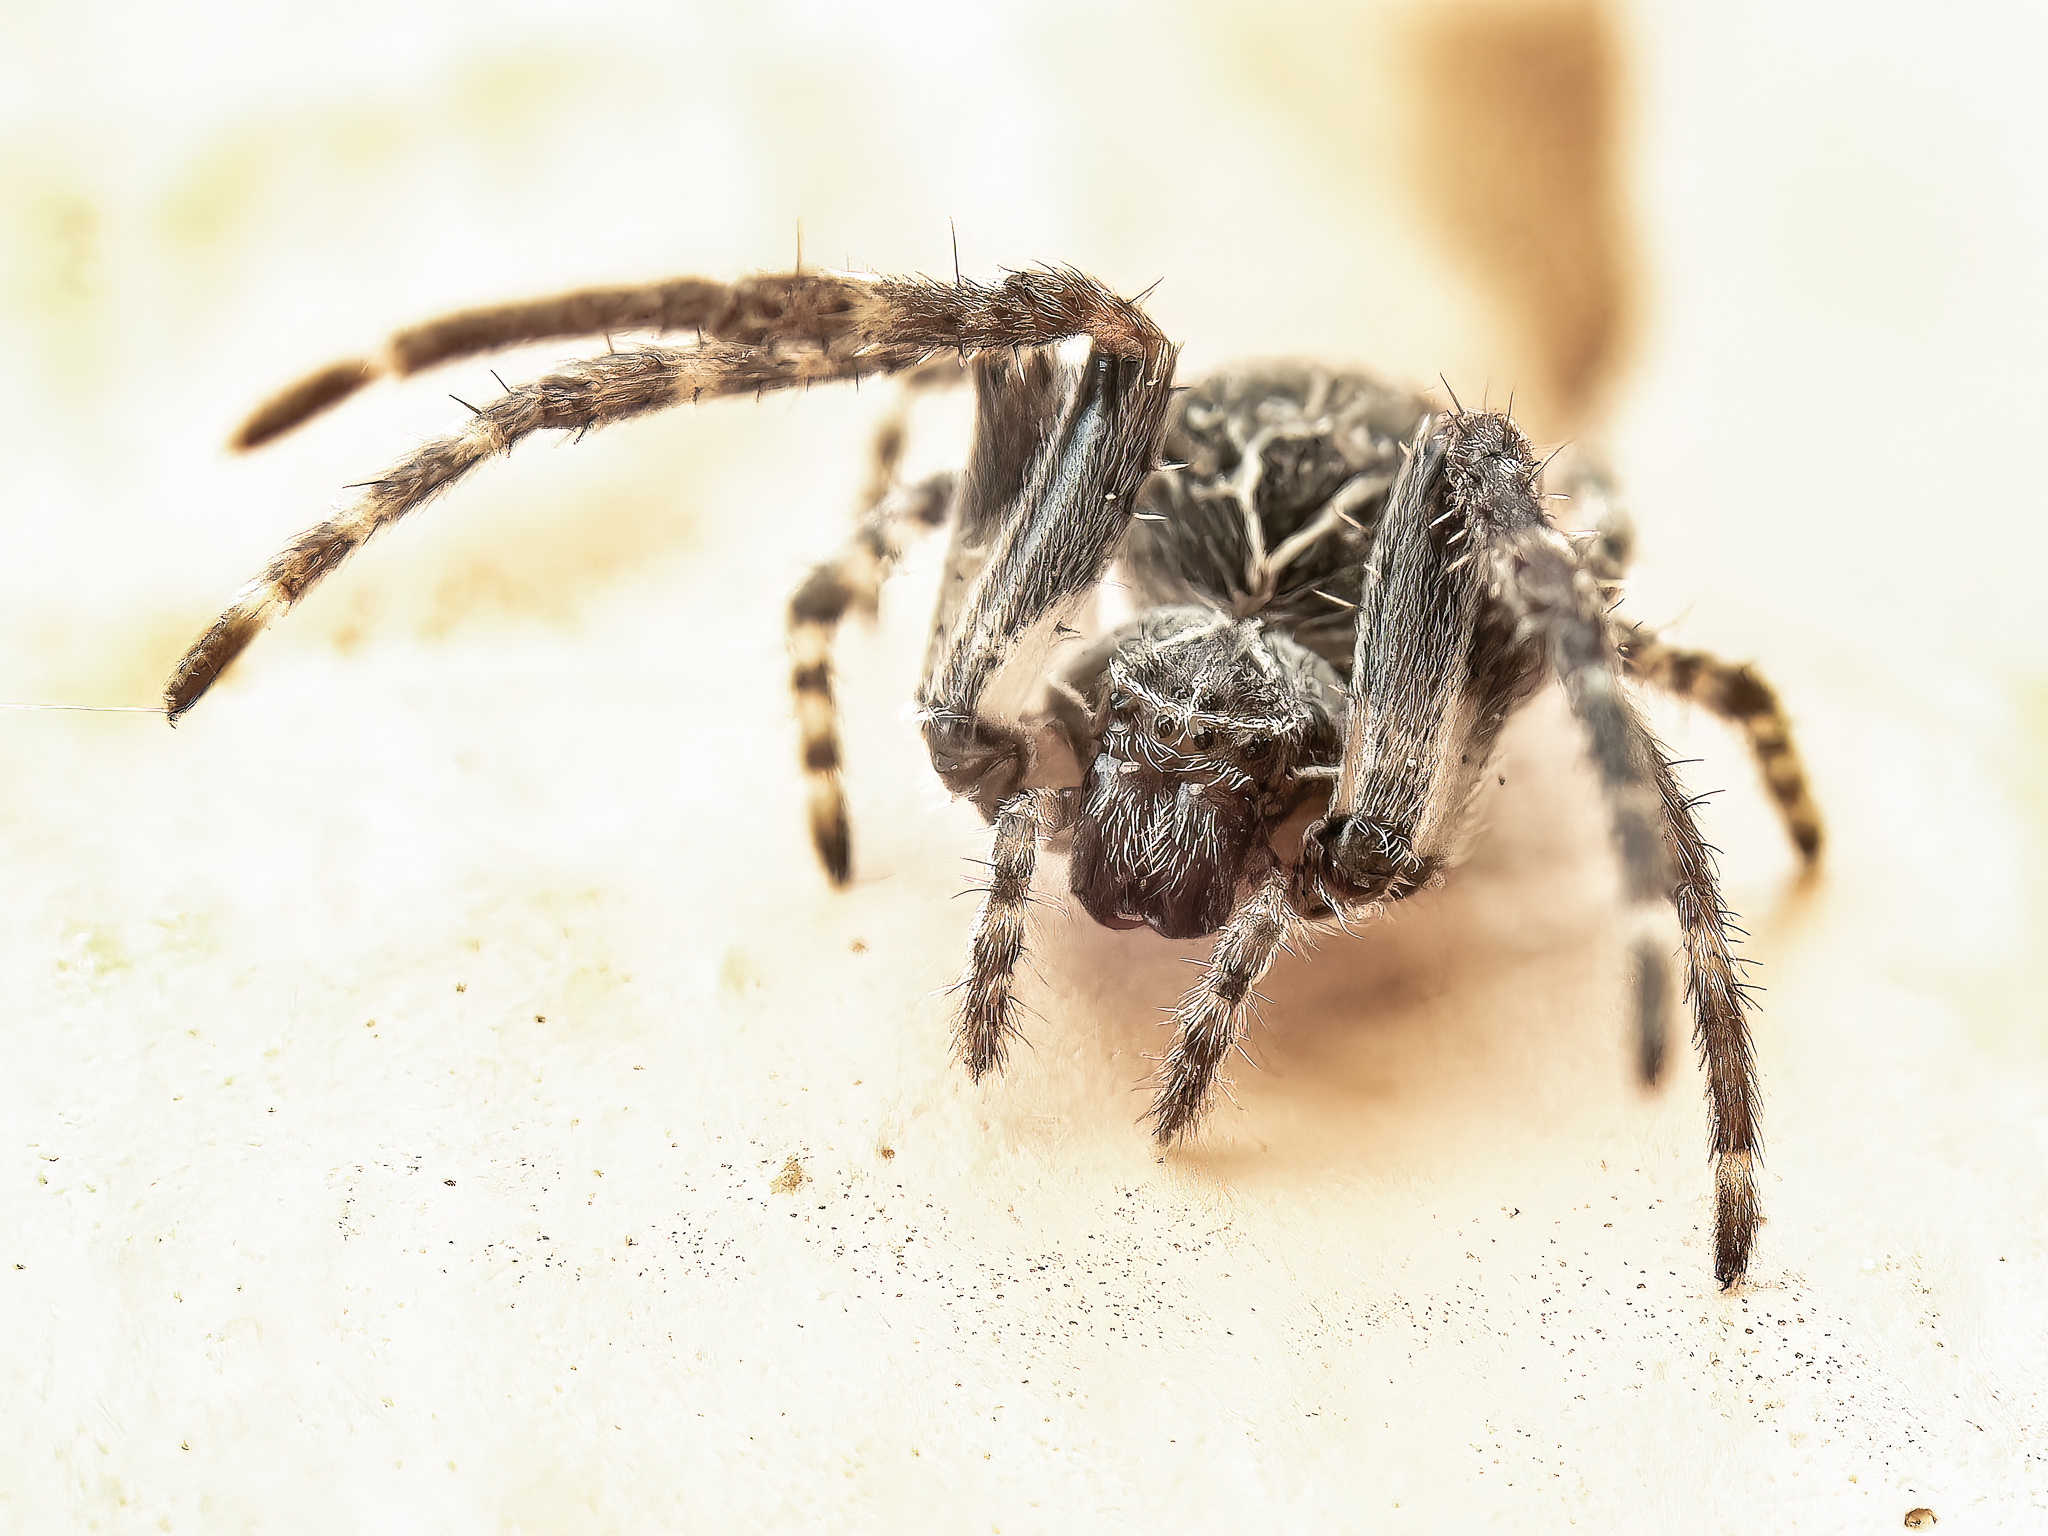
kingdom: Animalia
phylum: Arthropoda
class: Arachnida
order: Araneae
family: Araneidae
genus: Larinioides
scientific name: Larinioides sclopetarius
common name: Bridge orbweaver
